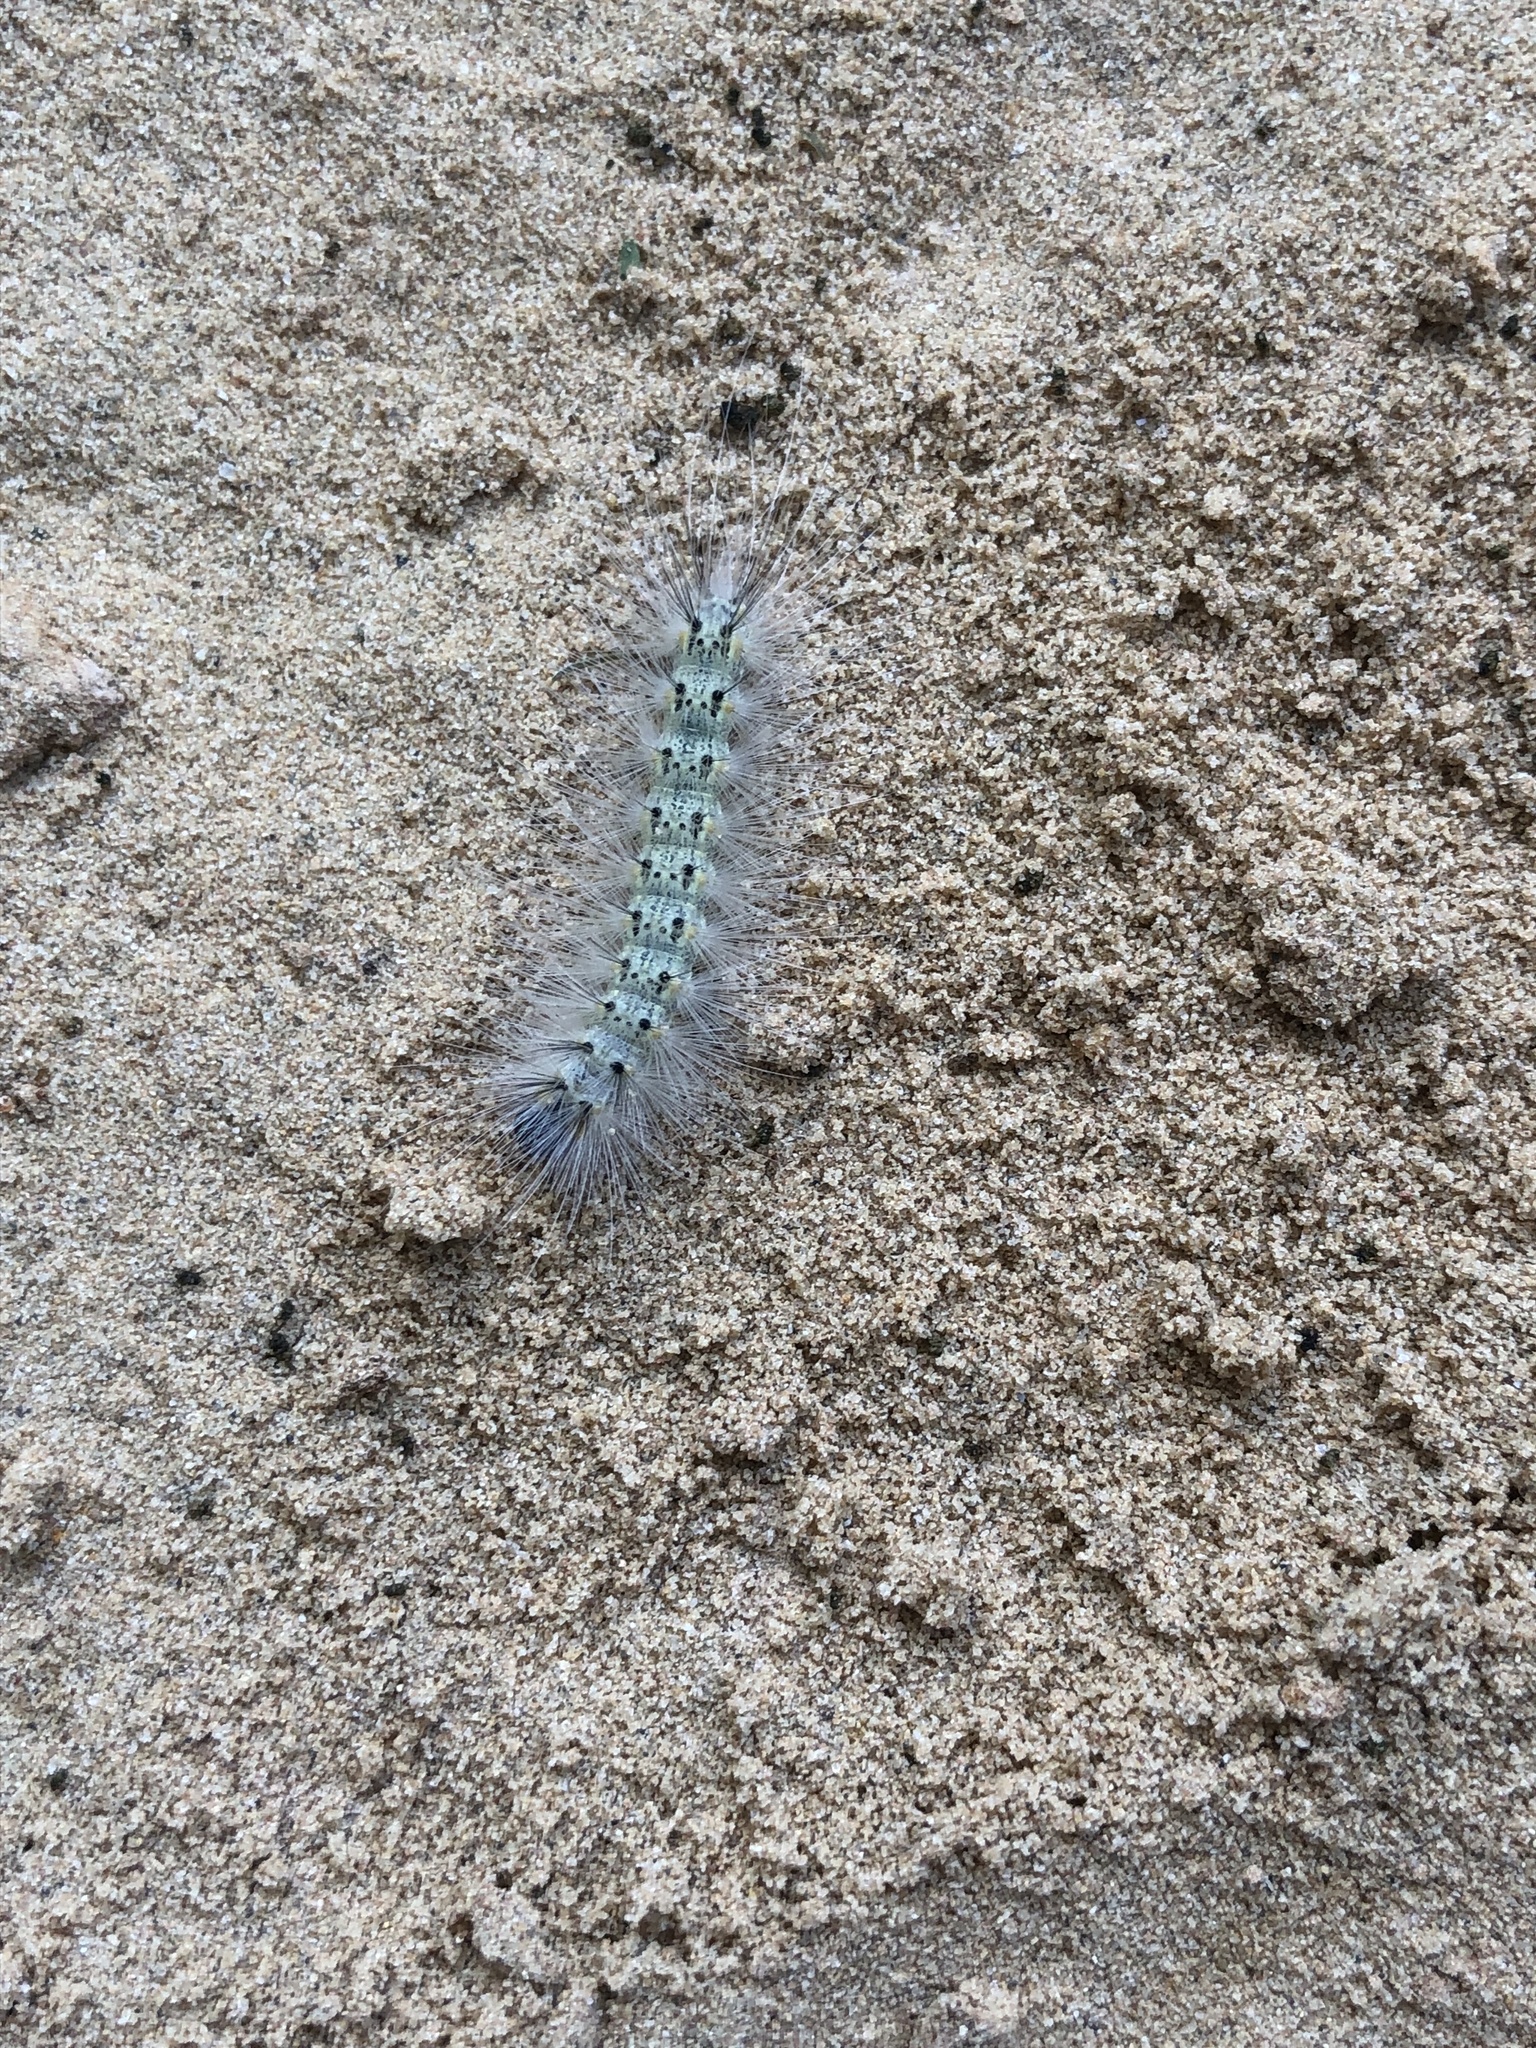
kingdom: Animalia
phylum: Arthropoda
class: Insecta
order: Lepidoptera
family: Erebidae
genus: Hyphantria
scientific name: Hyphantria cunea
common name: American white moth
